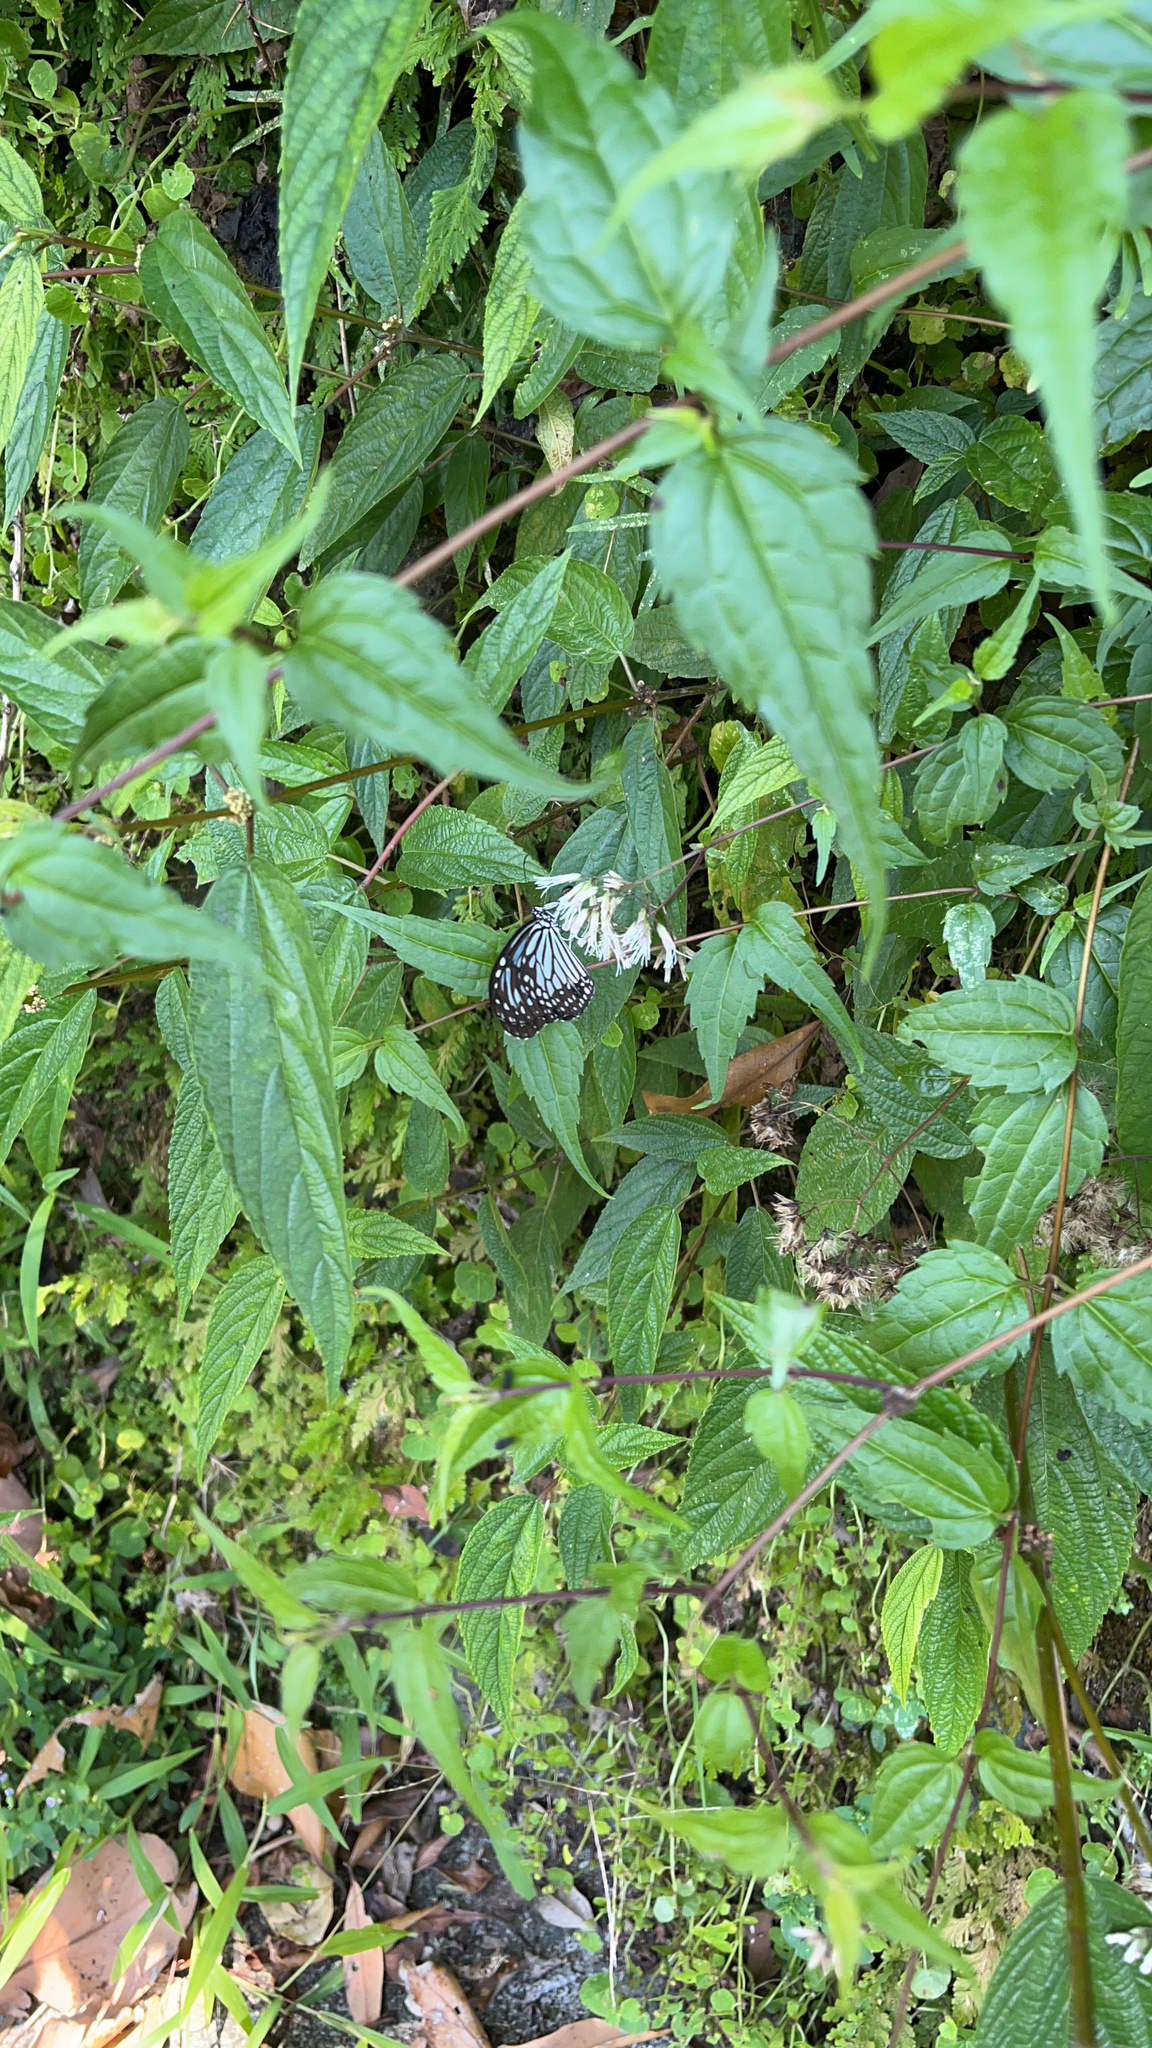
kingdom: Animalia
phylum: Arthropoda
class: Insecta
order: Lepidoptera
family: Nymphalidae
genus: Parantica
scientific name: Parantica aglea
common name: Glassy tiger
